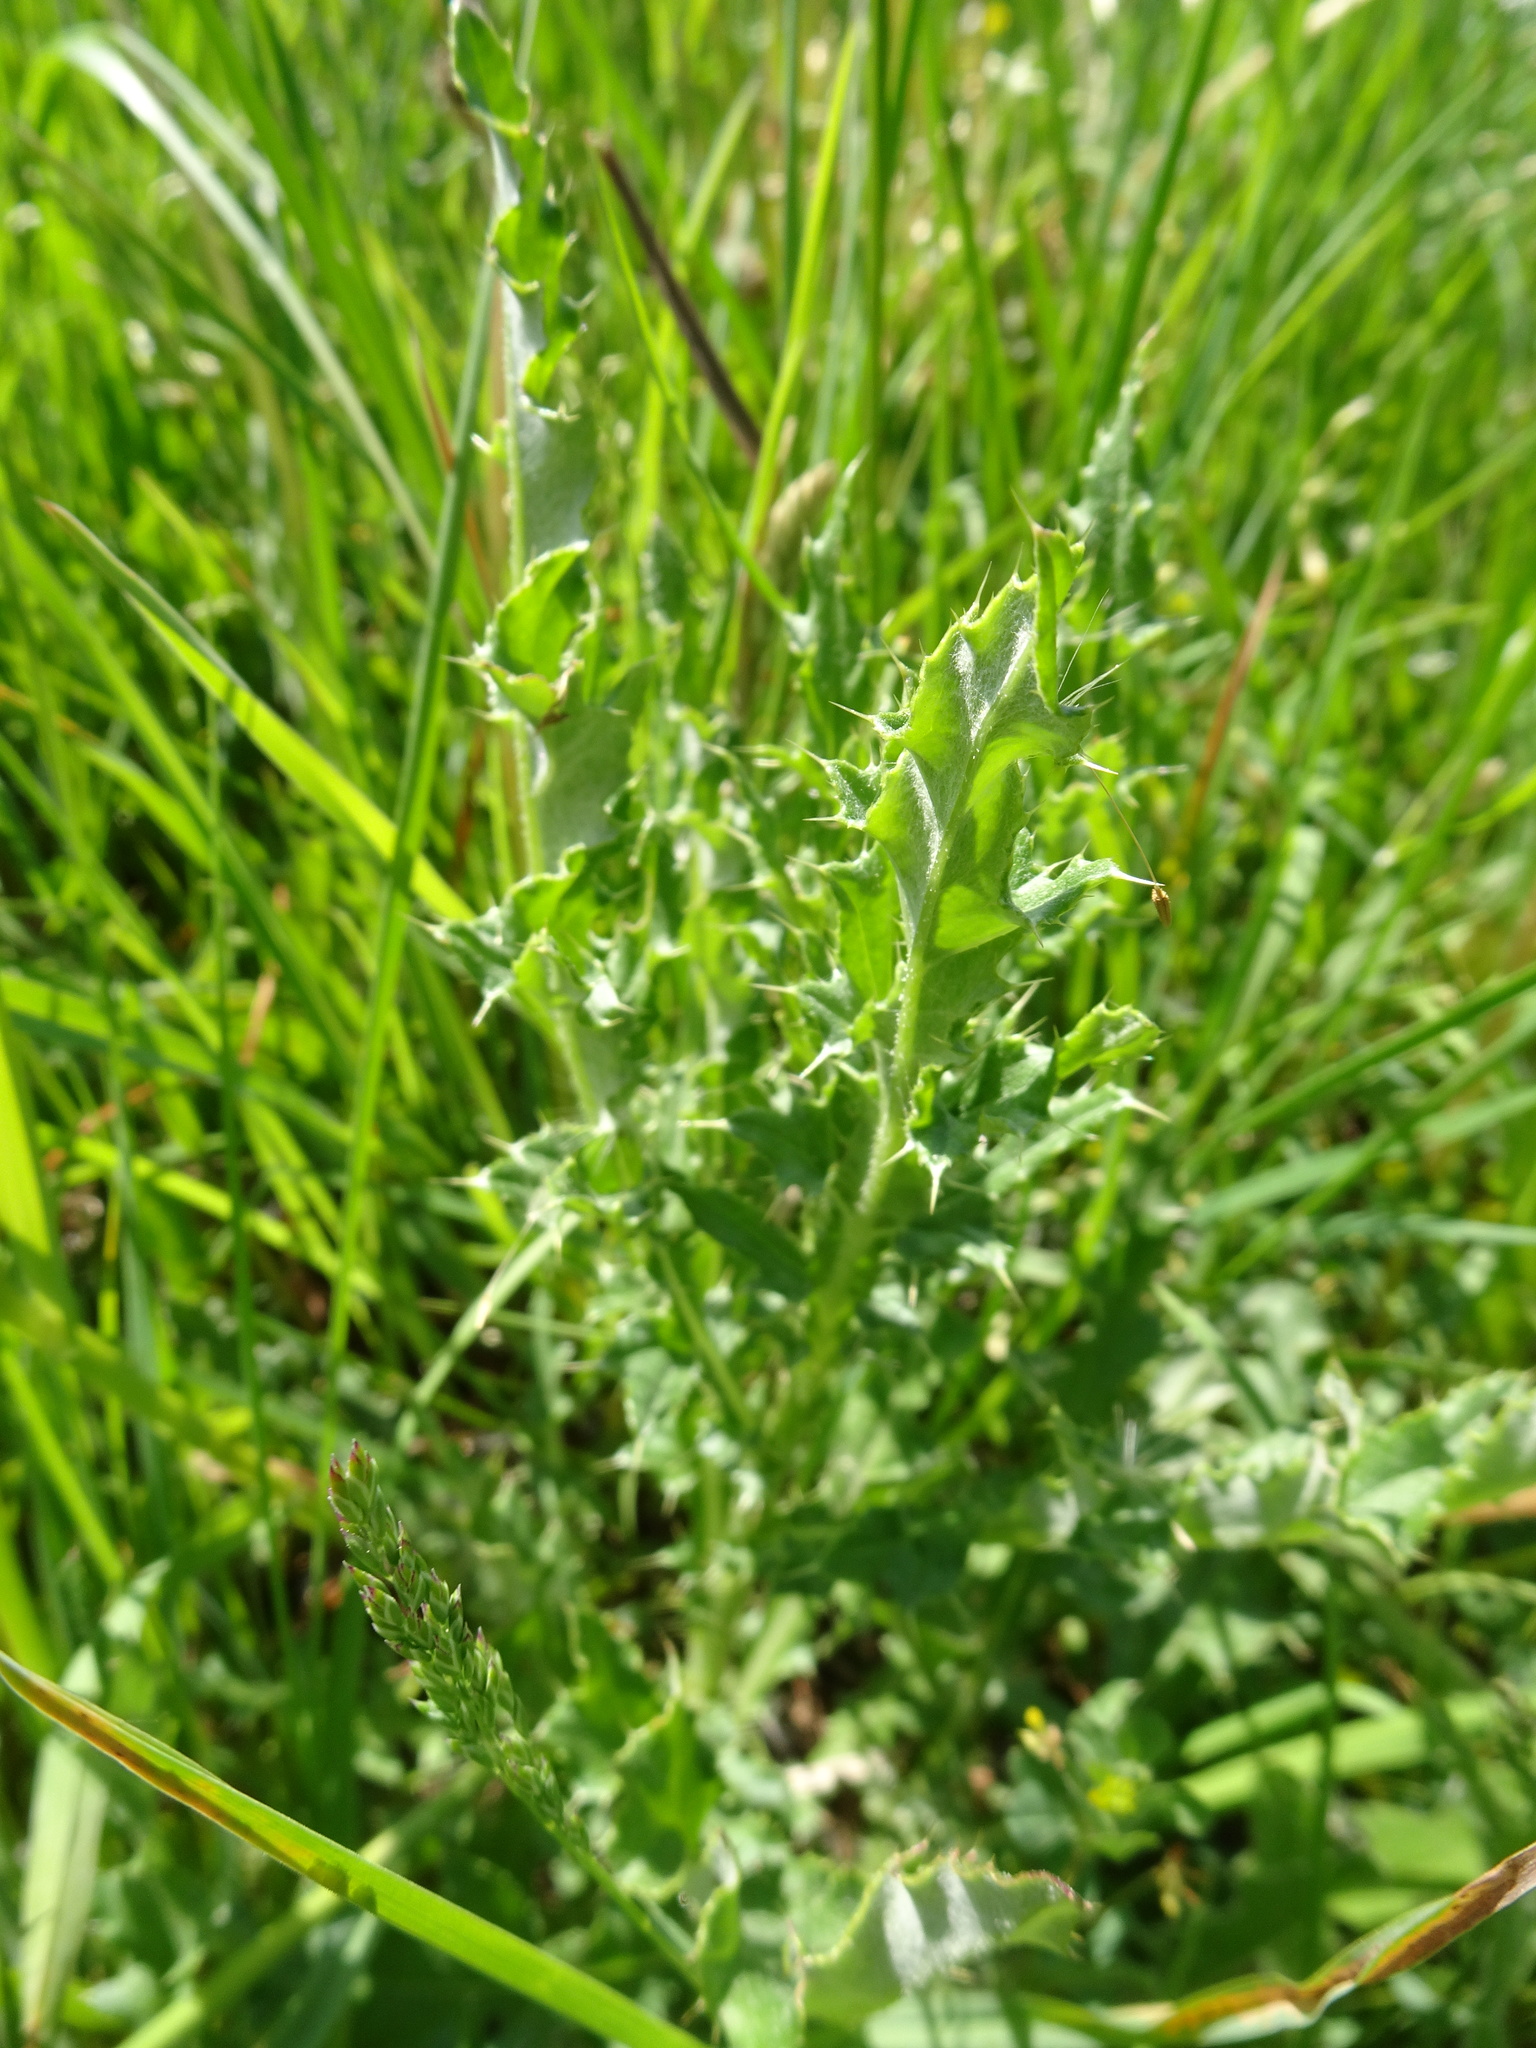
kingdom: Plantae
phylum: Tracheophyta
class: Magnoliopsida
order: Asterales
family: Asteraceae
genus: Cirsium
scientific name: Cirsium arvense
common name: Creeping thistle
